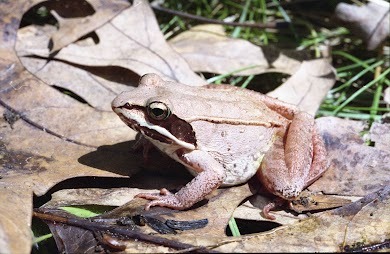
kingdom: Animalia
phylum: Chordata
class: Amphibia
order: Anura
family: Ranidae
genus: Lithobates
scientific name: Lithobates sylvaticus
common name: Wood frog
